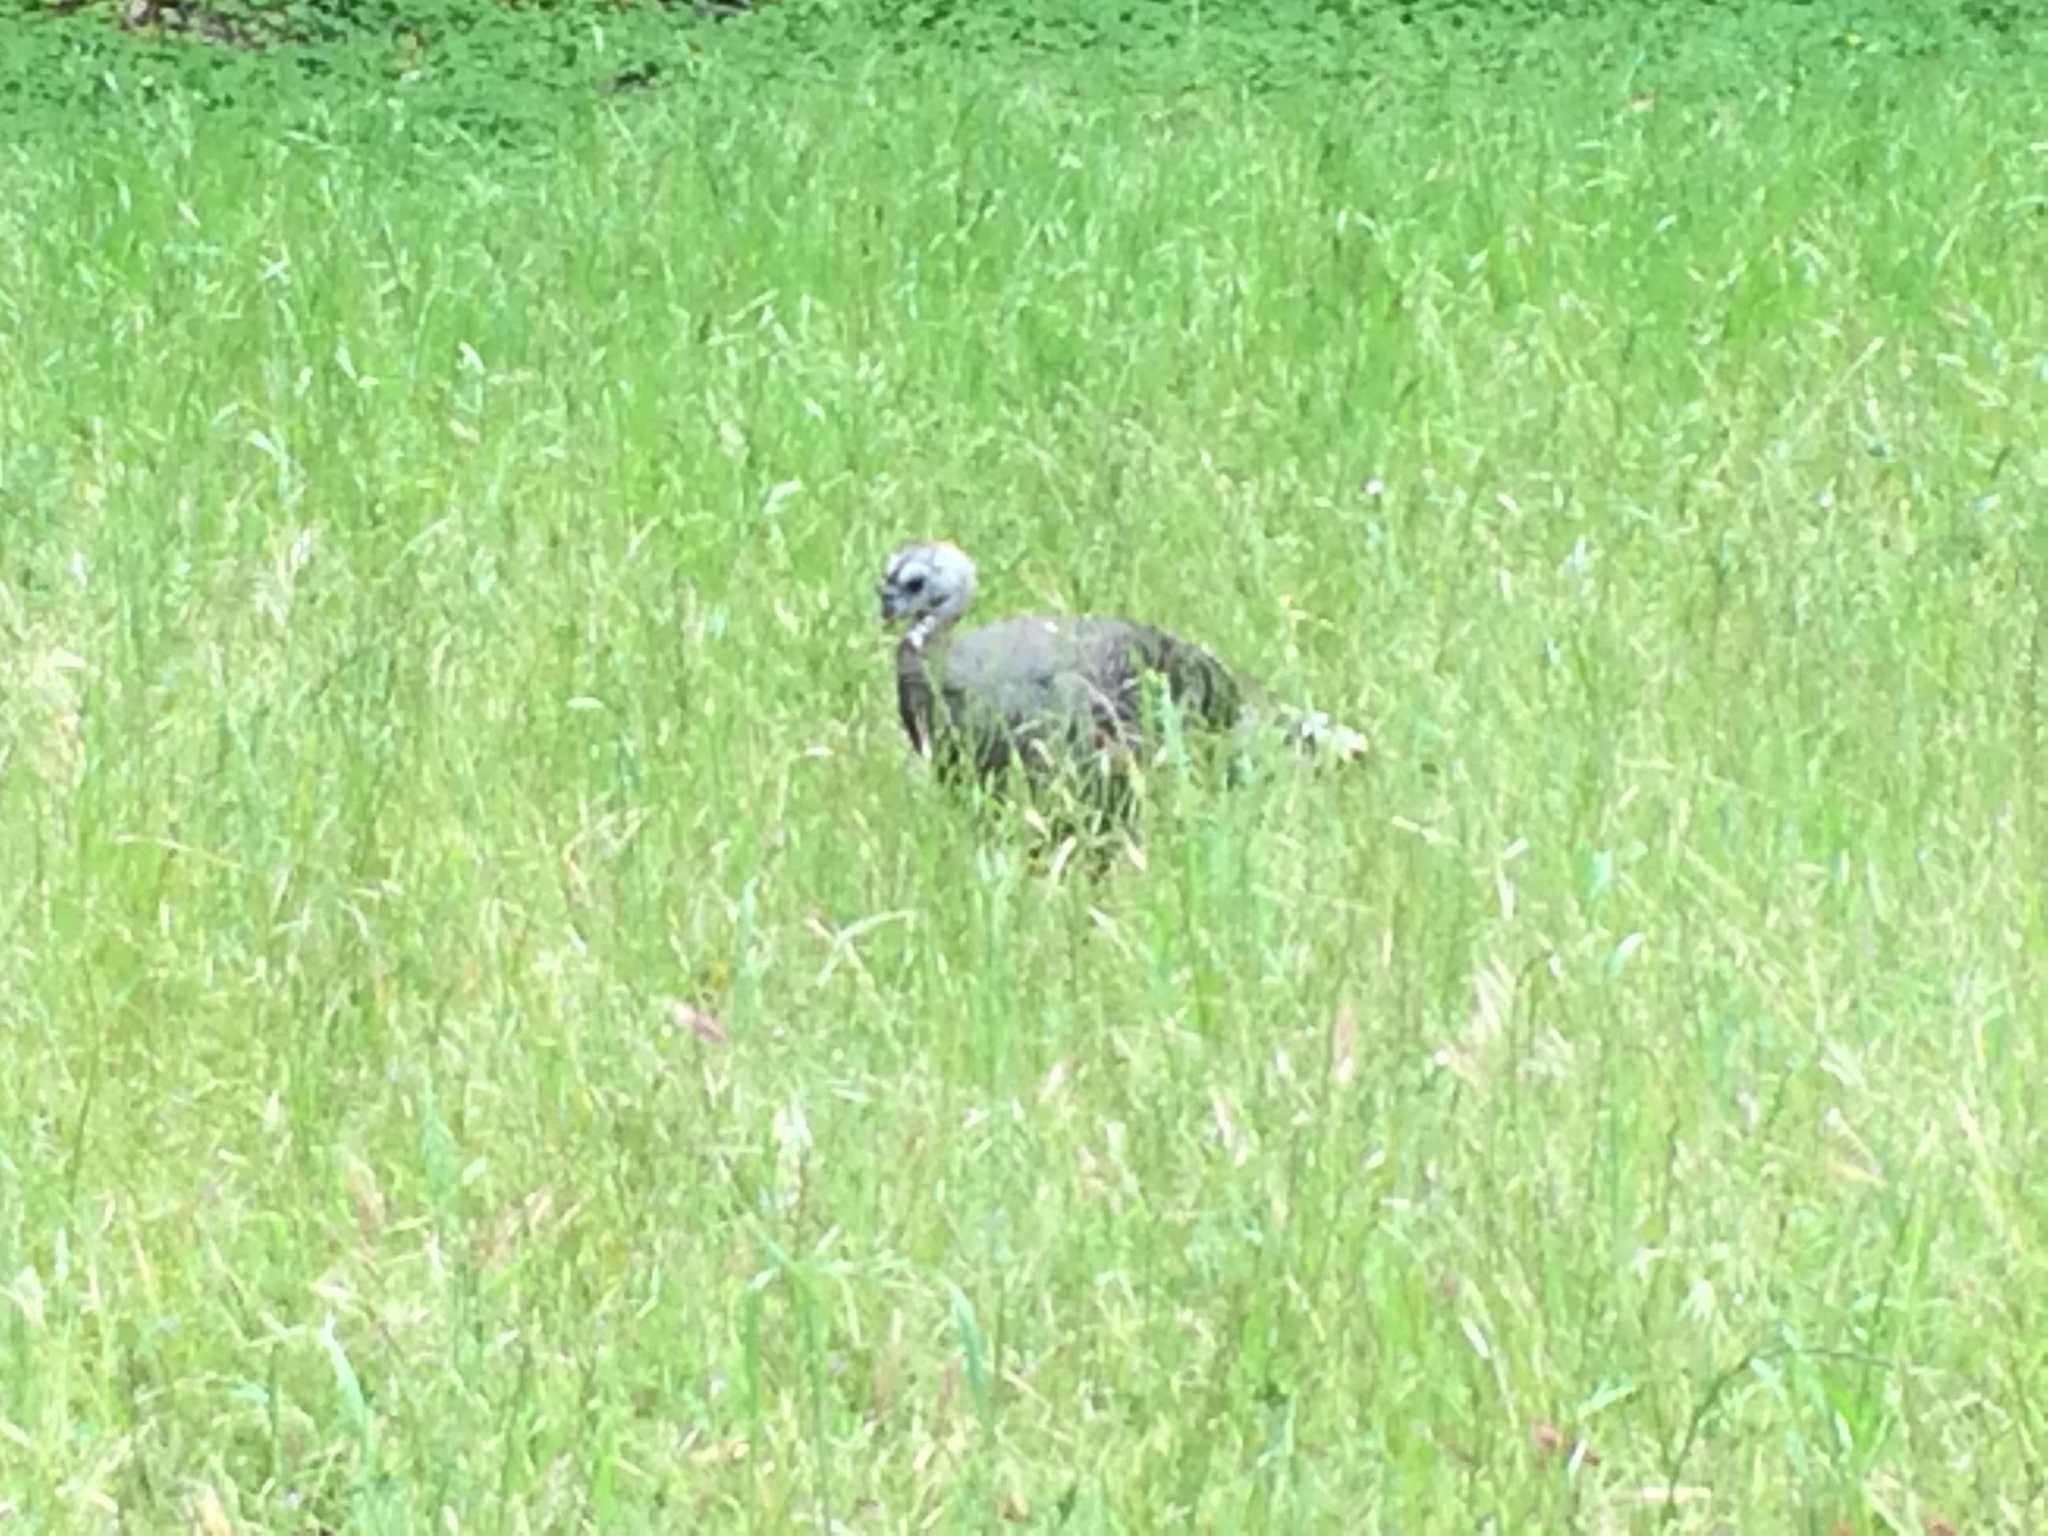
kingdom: Animalia
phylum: Chordata
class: Aves
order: Galliformes
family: Phasianidae
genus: Meleagris
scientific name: Meleagris gallopavo
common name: Wild turkey
